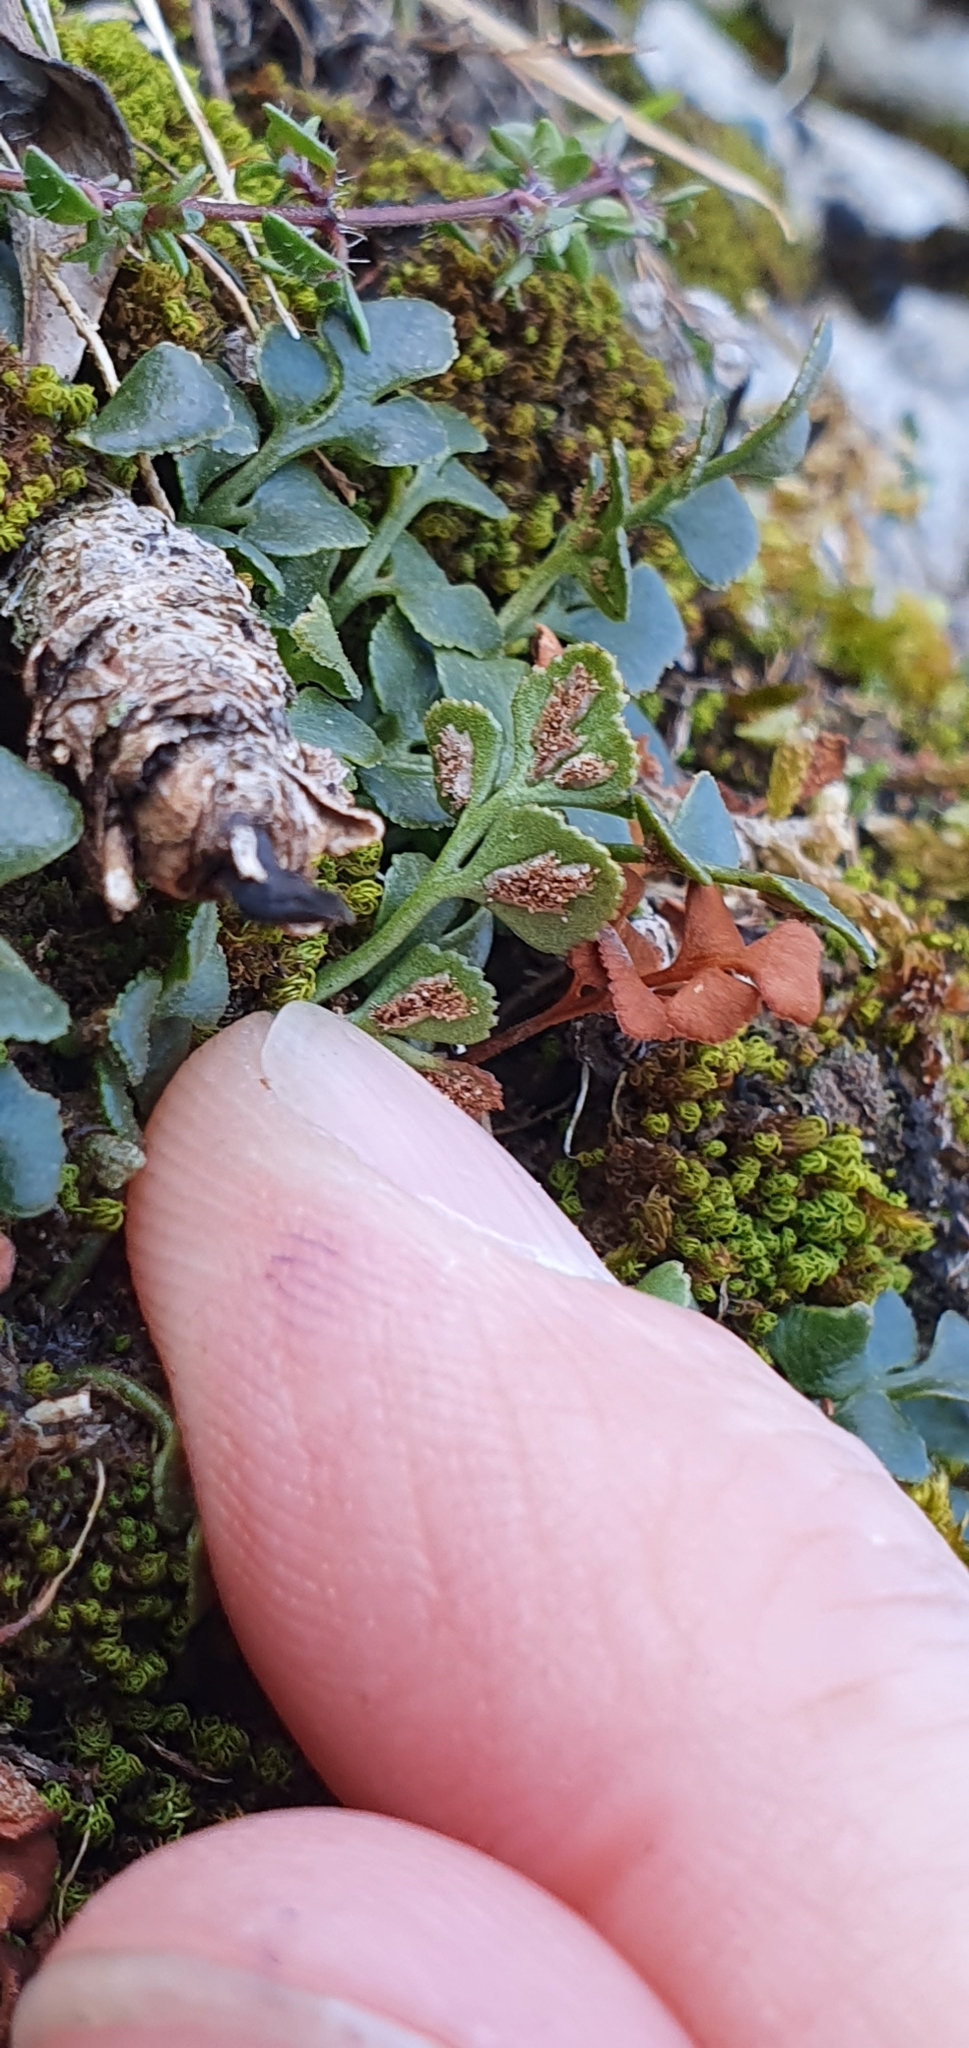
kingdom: Plantae
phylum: Tracheophyta
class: Polypodiopsida
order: Polypodiales
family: Aspleniaceae
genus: Asplenium
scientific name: Asplenium ruta-muraria
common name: Wall-rue
